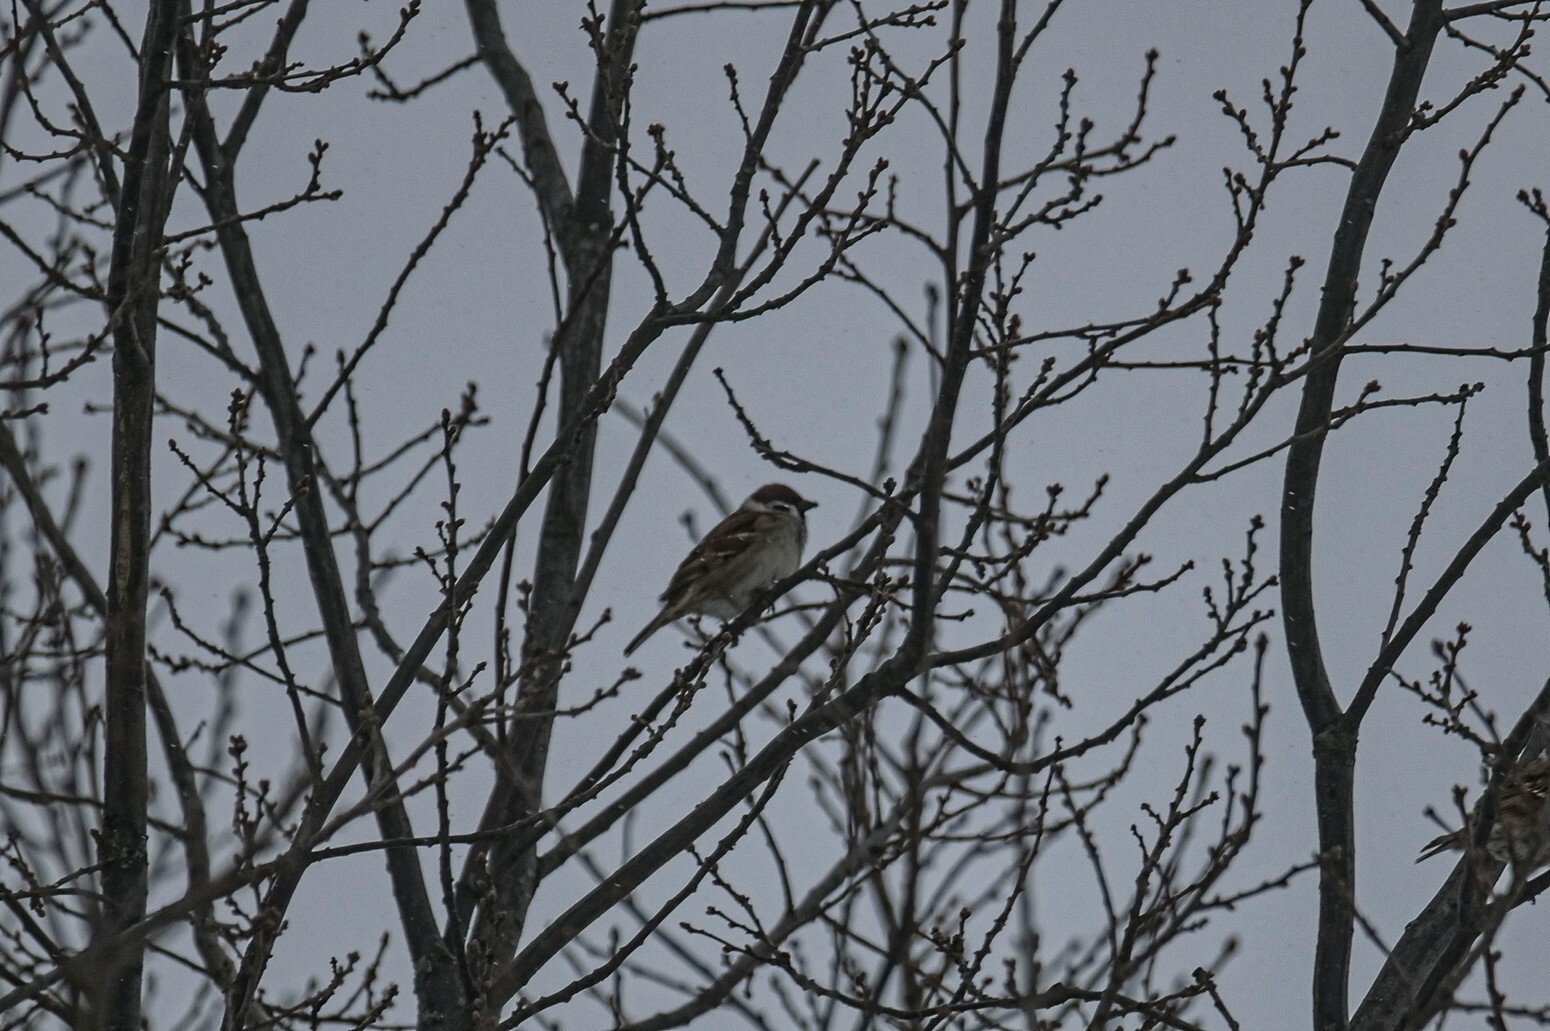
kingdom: Animalia
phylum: Chordata
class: Aves
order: Passeriformes
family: Passeridae
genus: Passer
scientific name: Passer montanus
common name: Eurasian tree sparrow
